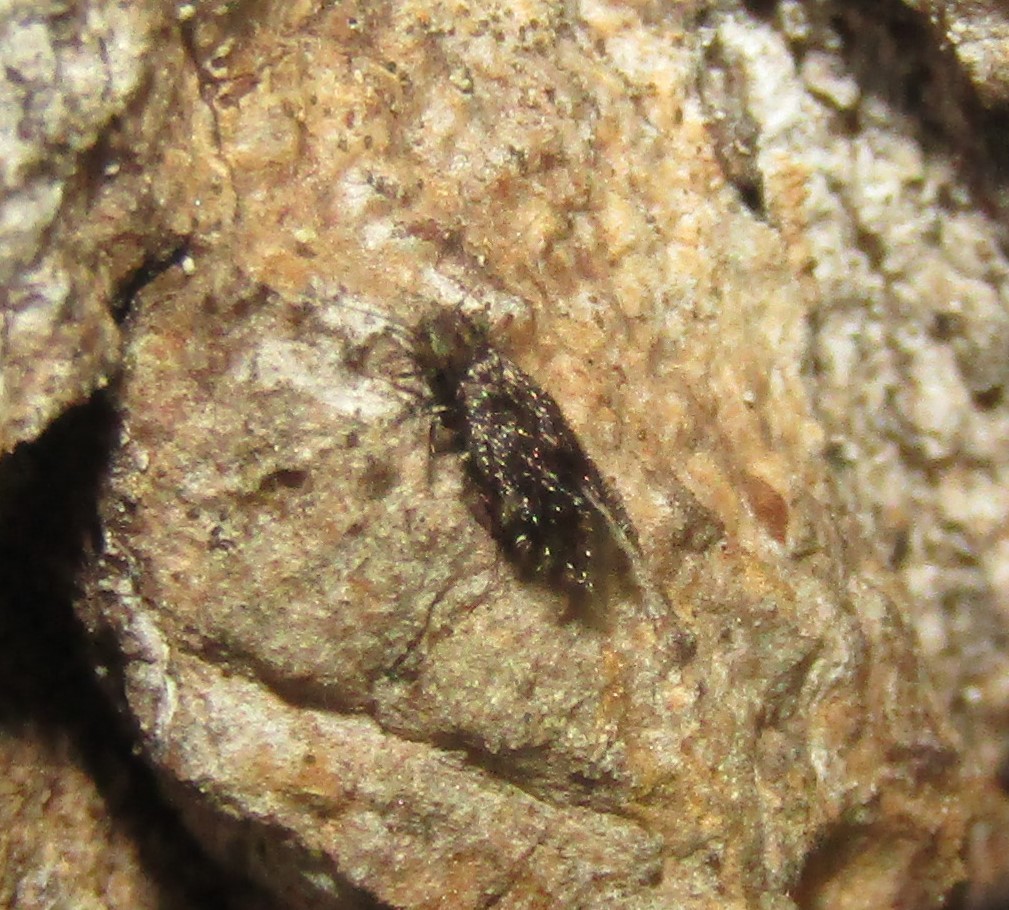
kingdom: Animalia
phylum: Arthropoda
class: Insecta
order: Psocodea
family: Lepidopsocidae
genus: Echmepteryx
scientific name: Echmepteryx hageni
